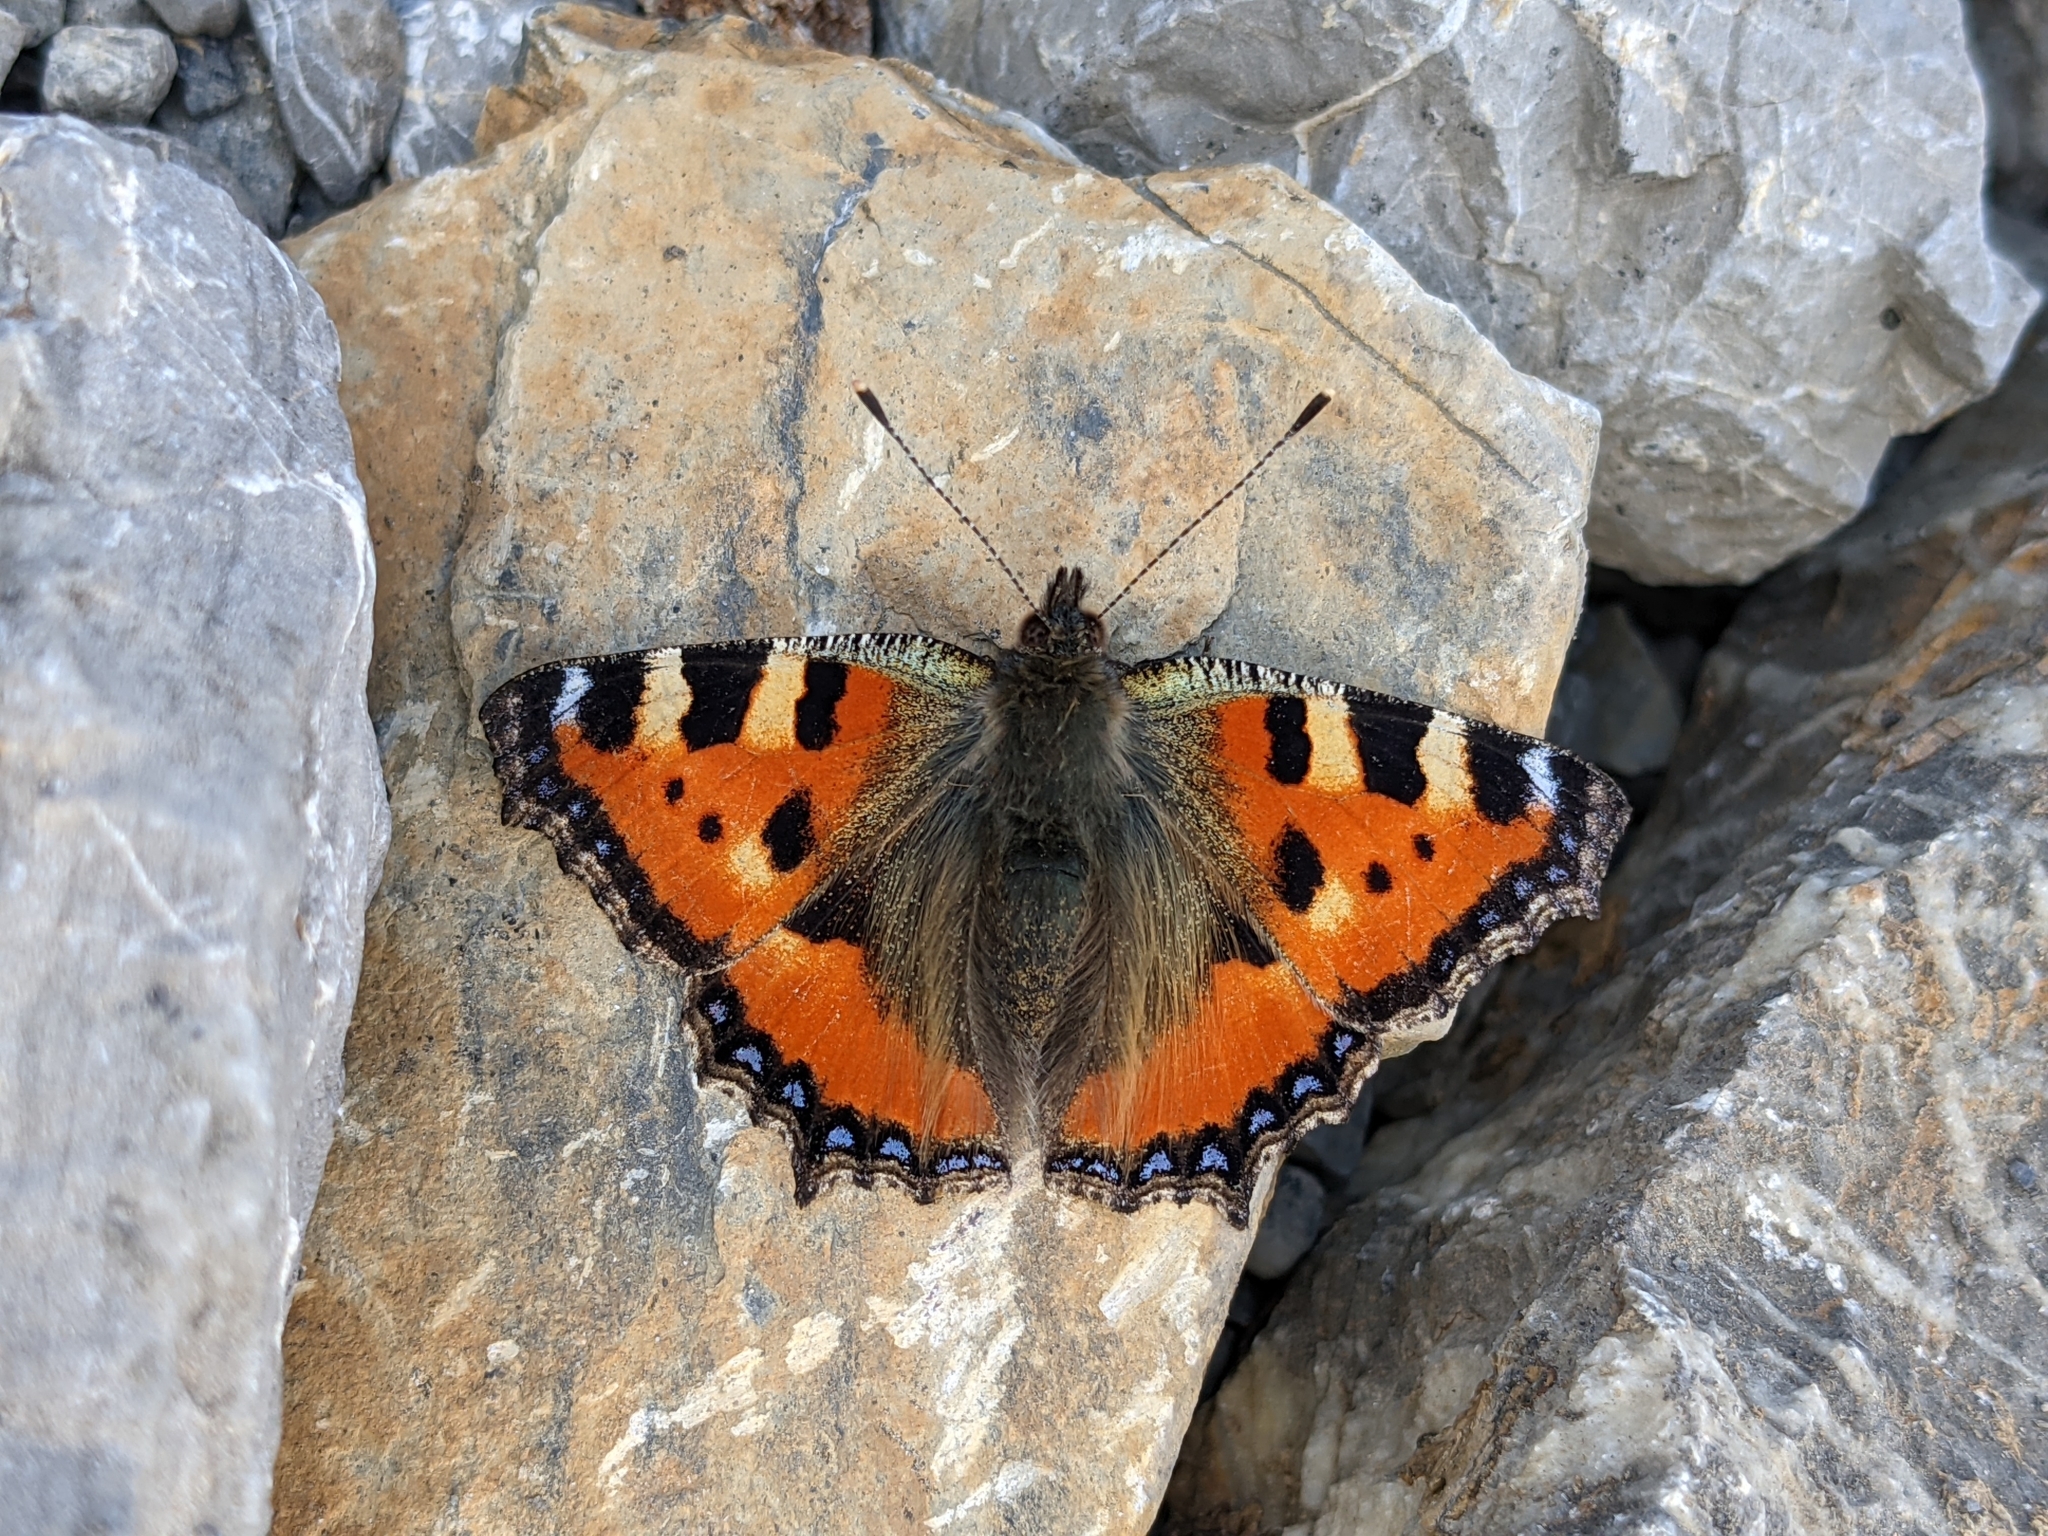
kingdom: Animalia
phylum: Arthropoda
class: Insecta
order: Lepidoptera
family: Nymphalidae
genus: Aglais
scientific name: Aglais urticae
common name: Small tortoiseshell
